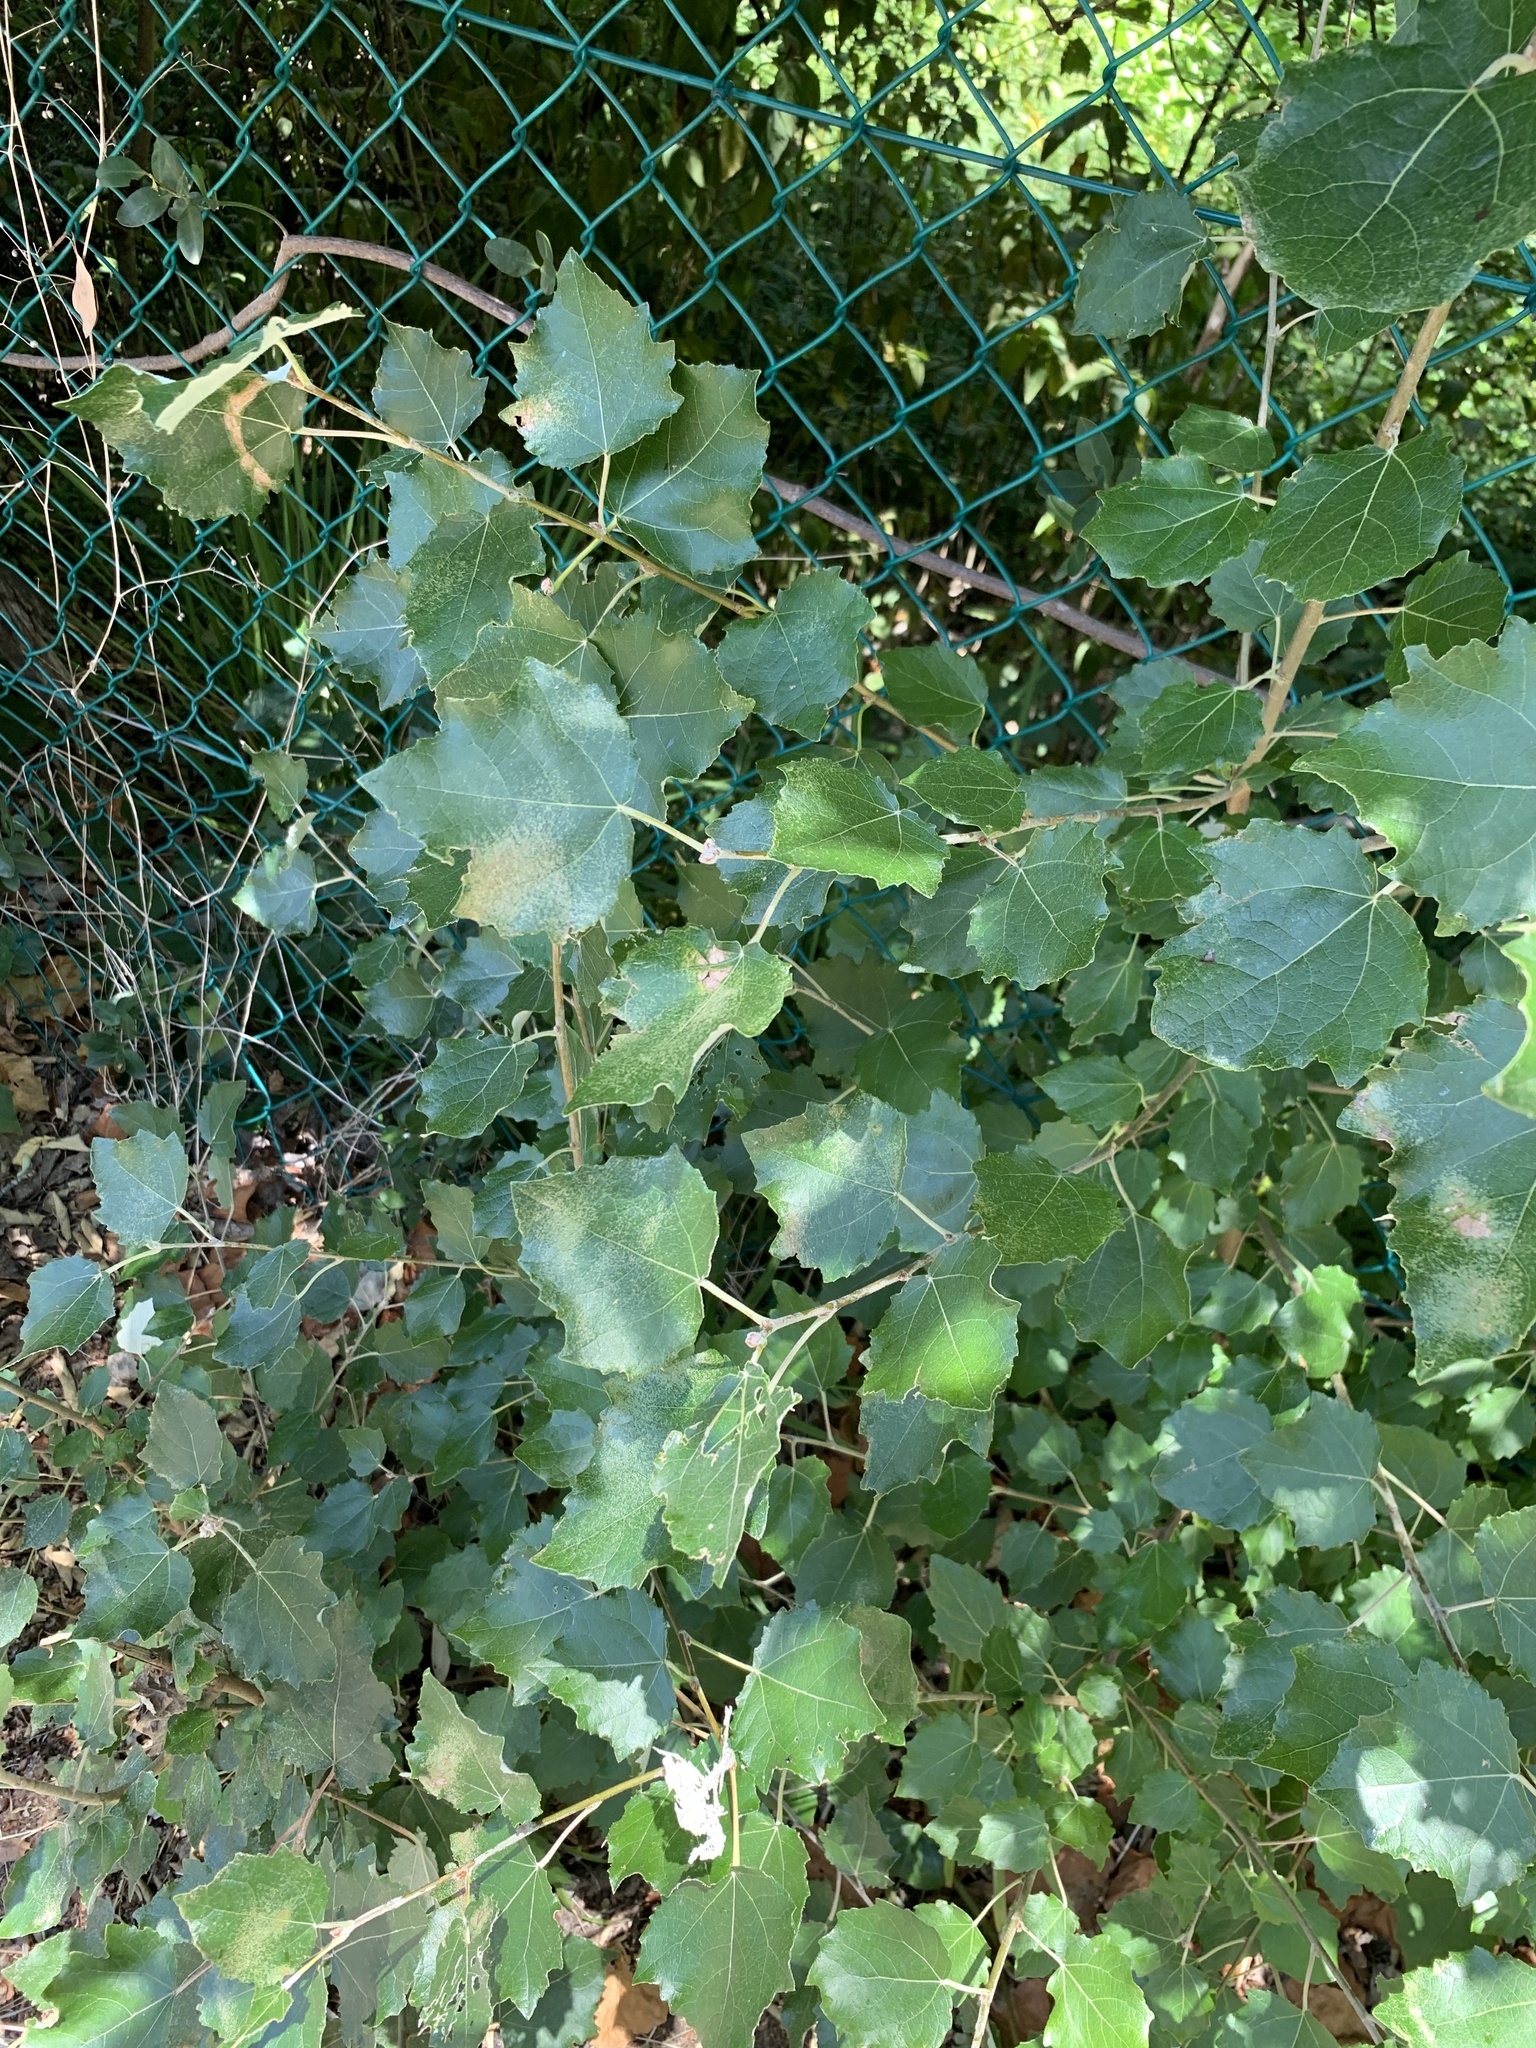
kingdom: Plantae
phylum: Tracheophyta
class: Magnoliopsida
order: Malpighiales
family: Salicaceae
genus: Populus
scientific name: Populus canescens
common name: Gray poplar
